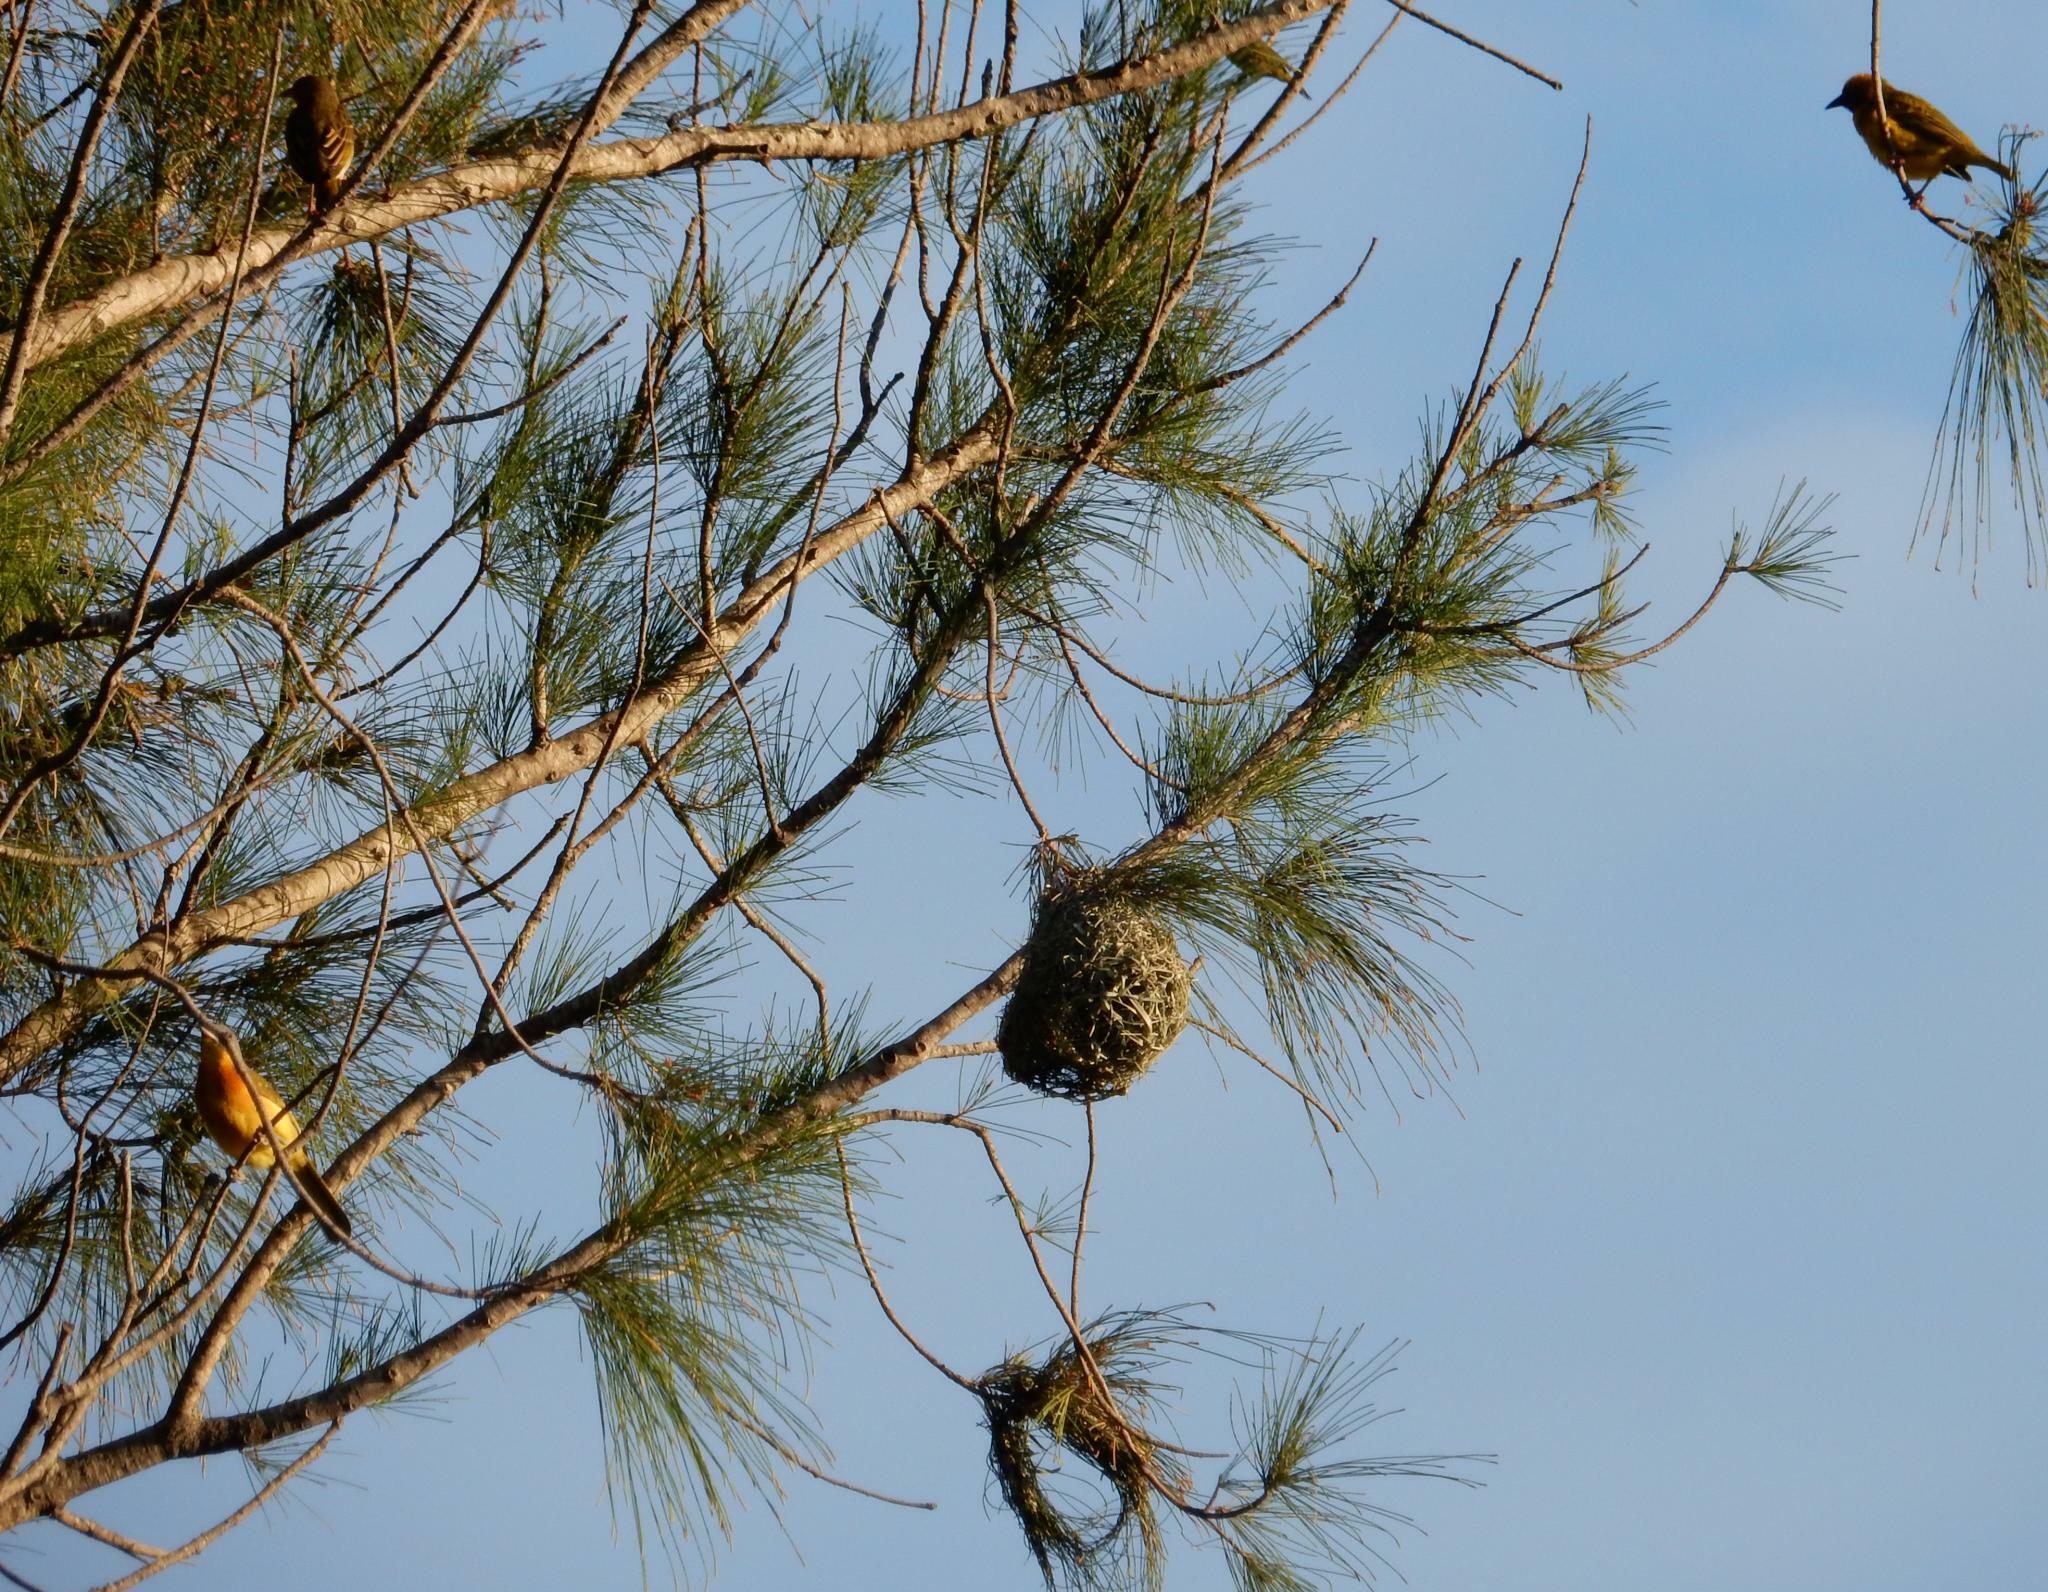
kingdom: Animalia
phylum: Chordata
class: Aves
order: Passeriformes
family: Malaconotidae
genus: Malaconotus
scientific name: Malaconotus blanchoti
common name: Grey-headed bushshrike
